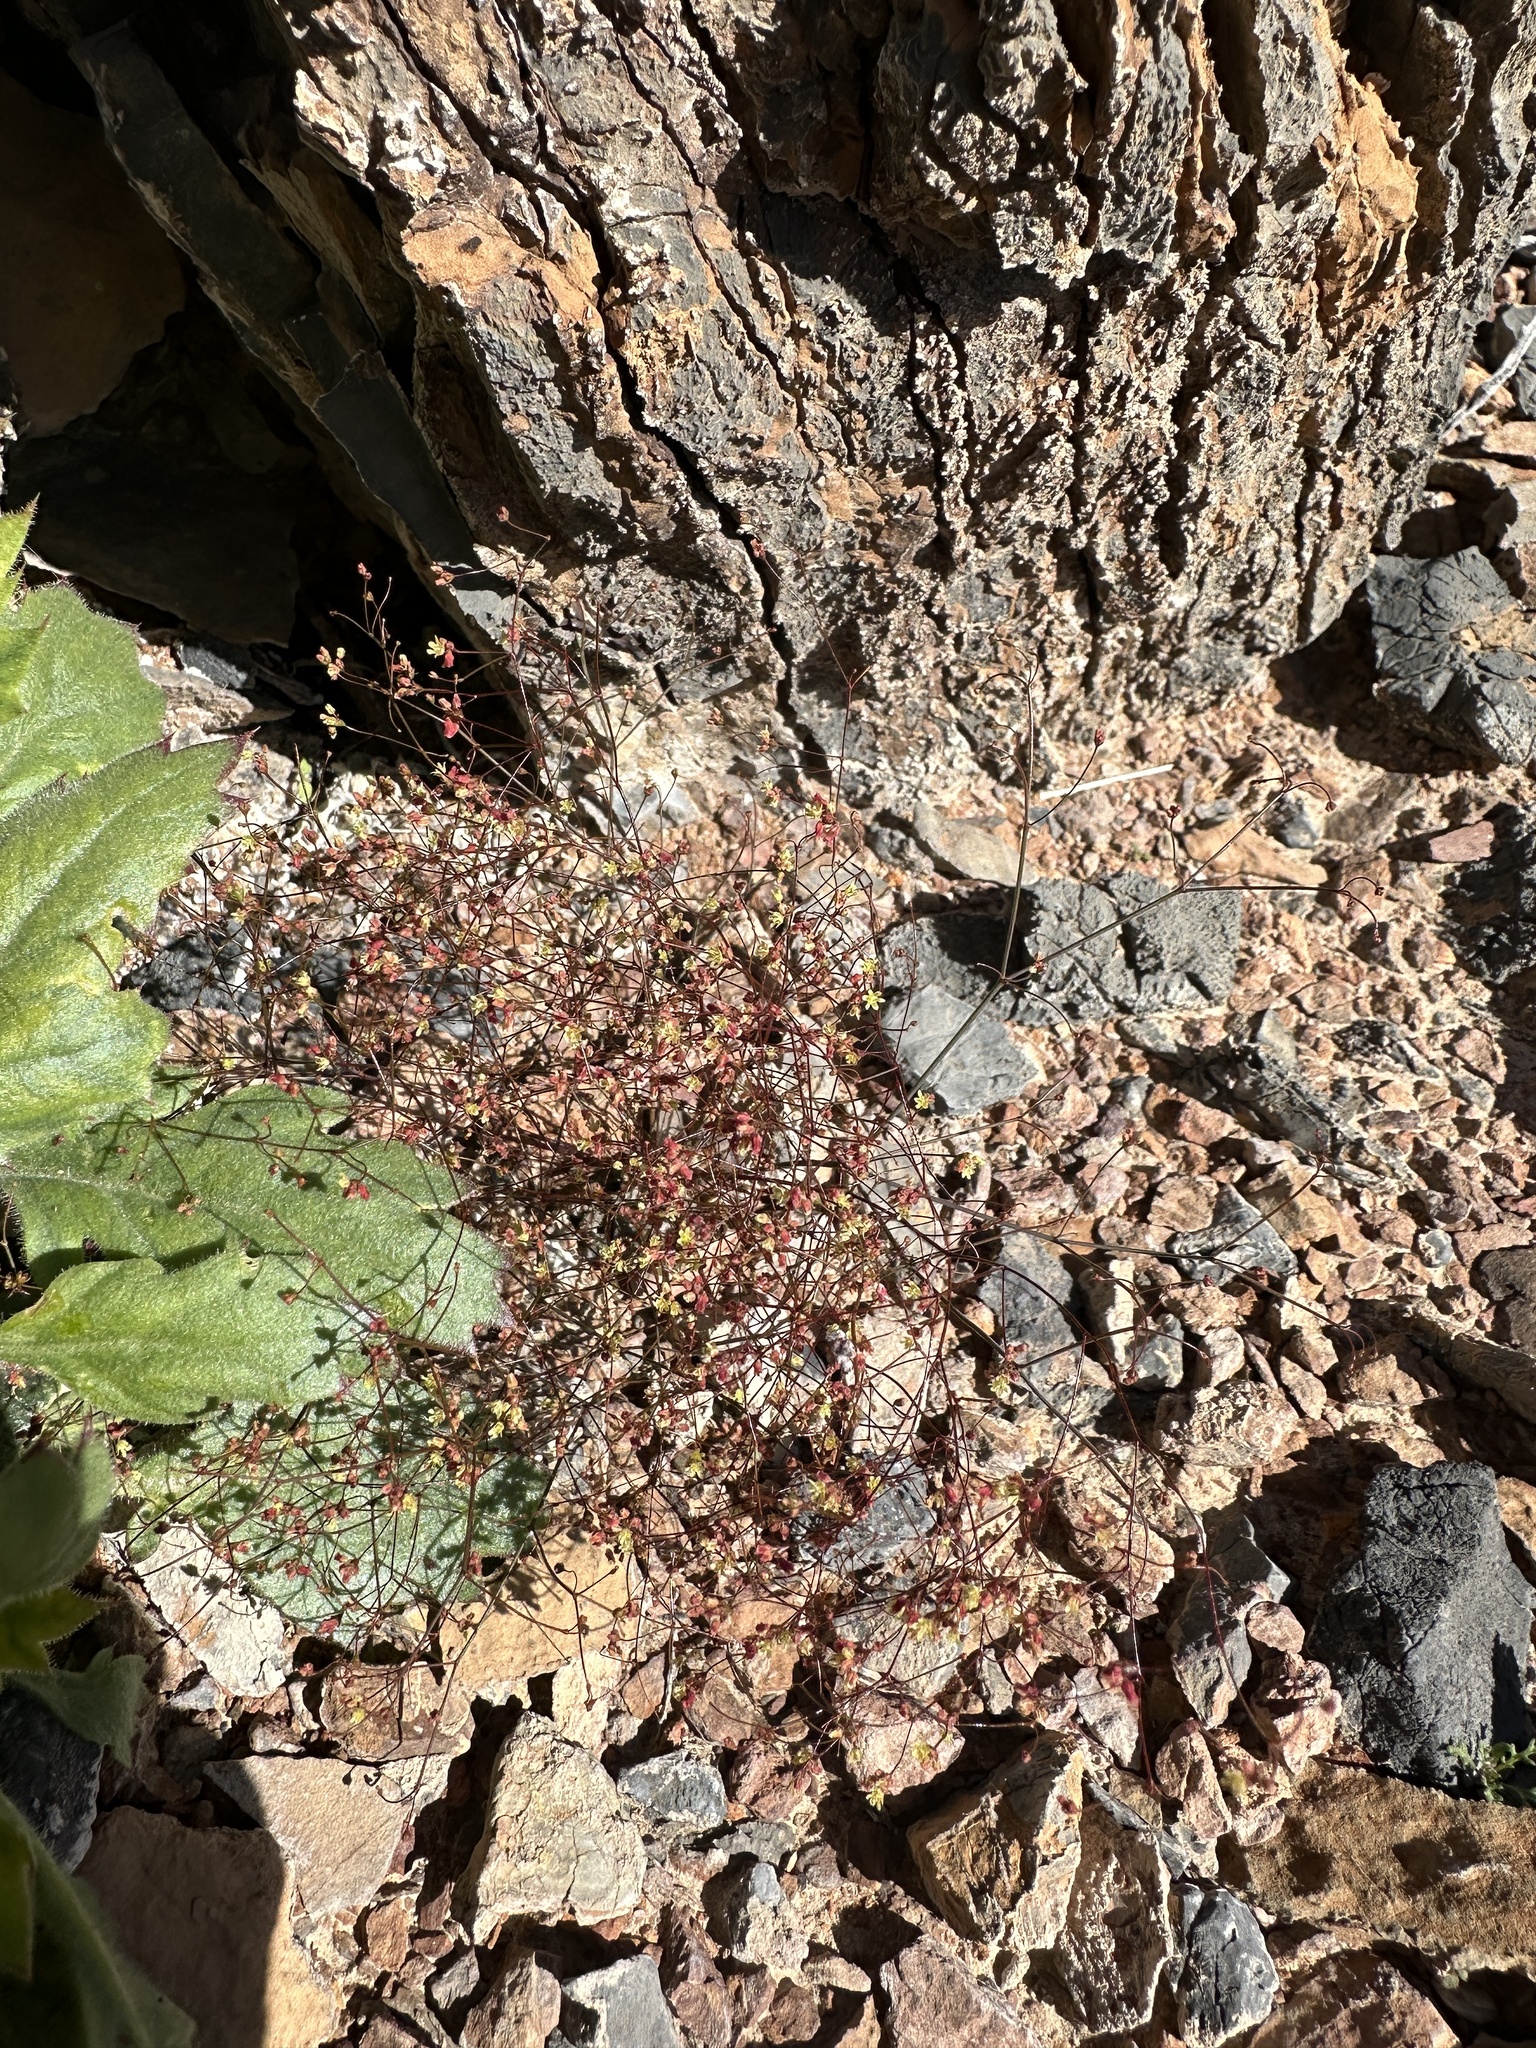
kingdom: Plantae
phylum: Tracheophyta
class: Magnoliopsida
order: Caryophyllales
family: Polygonaceae
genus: Eriogonum
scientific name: Eriogonum thomasii
